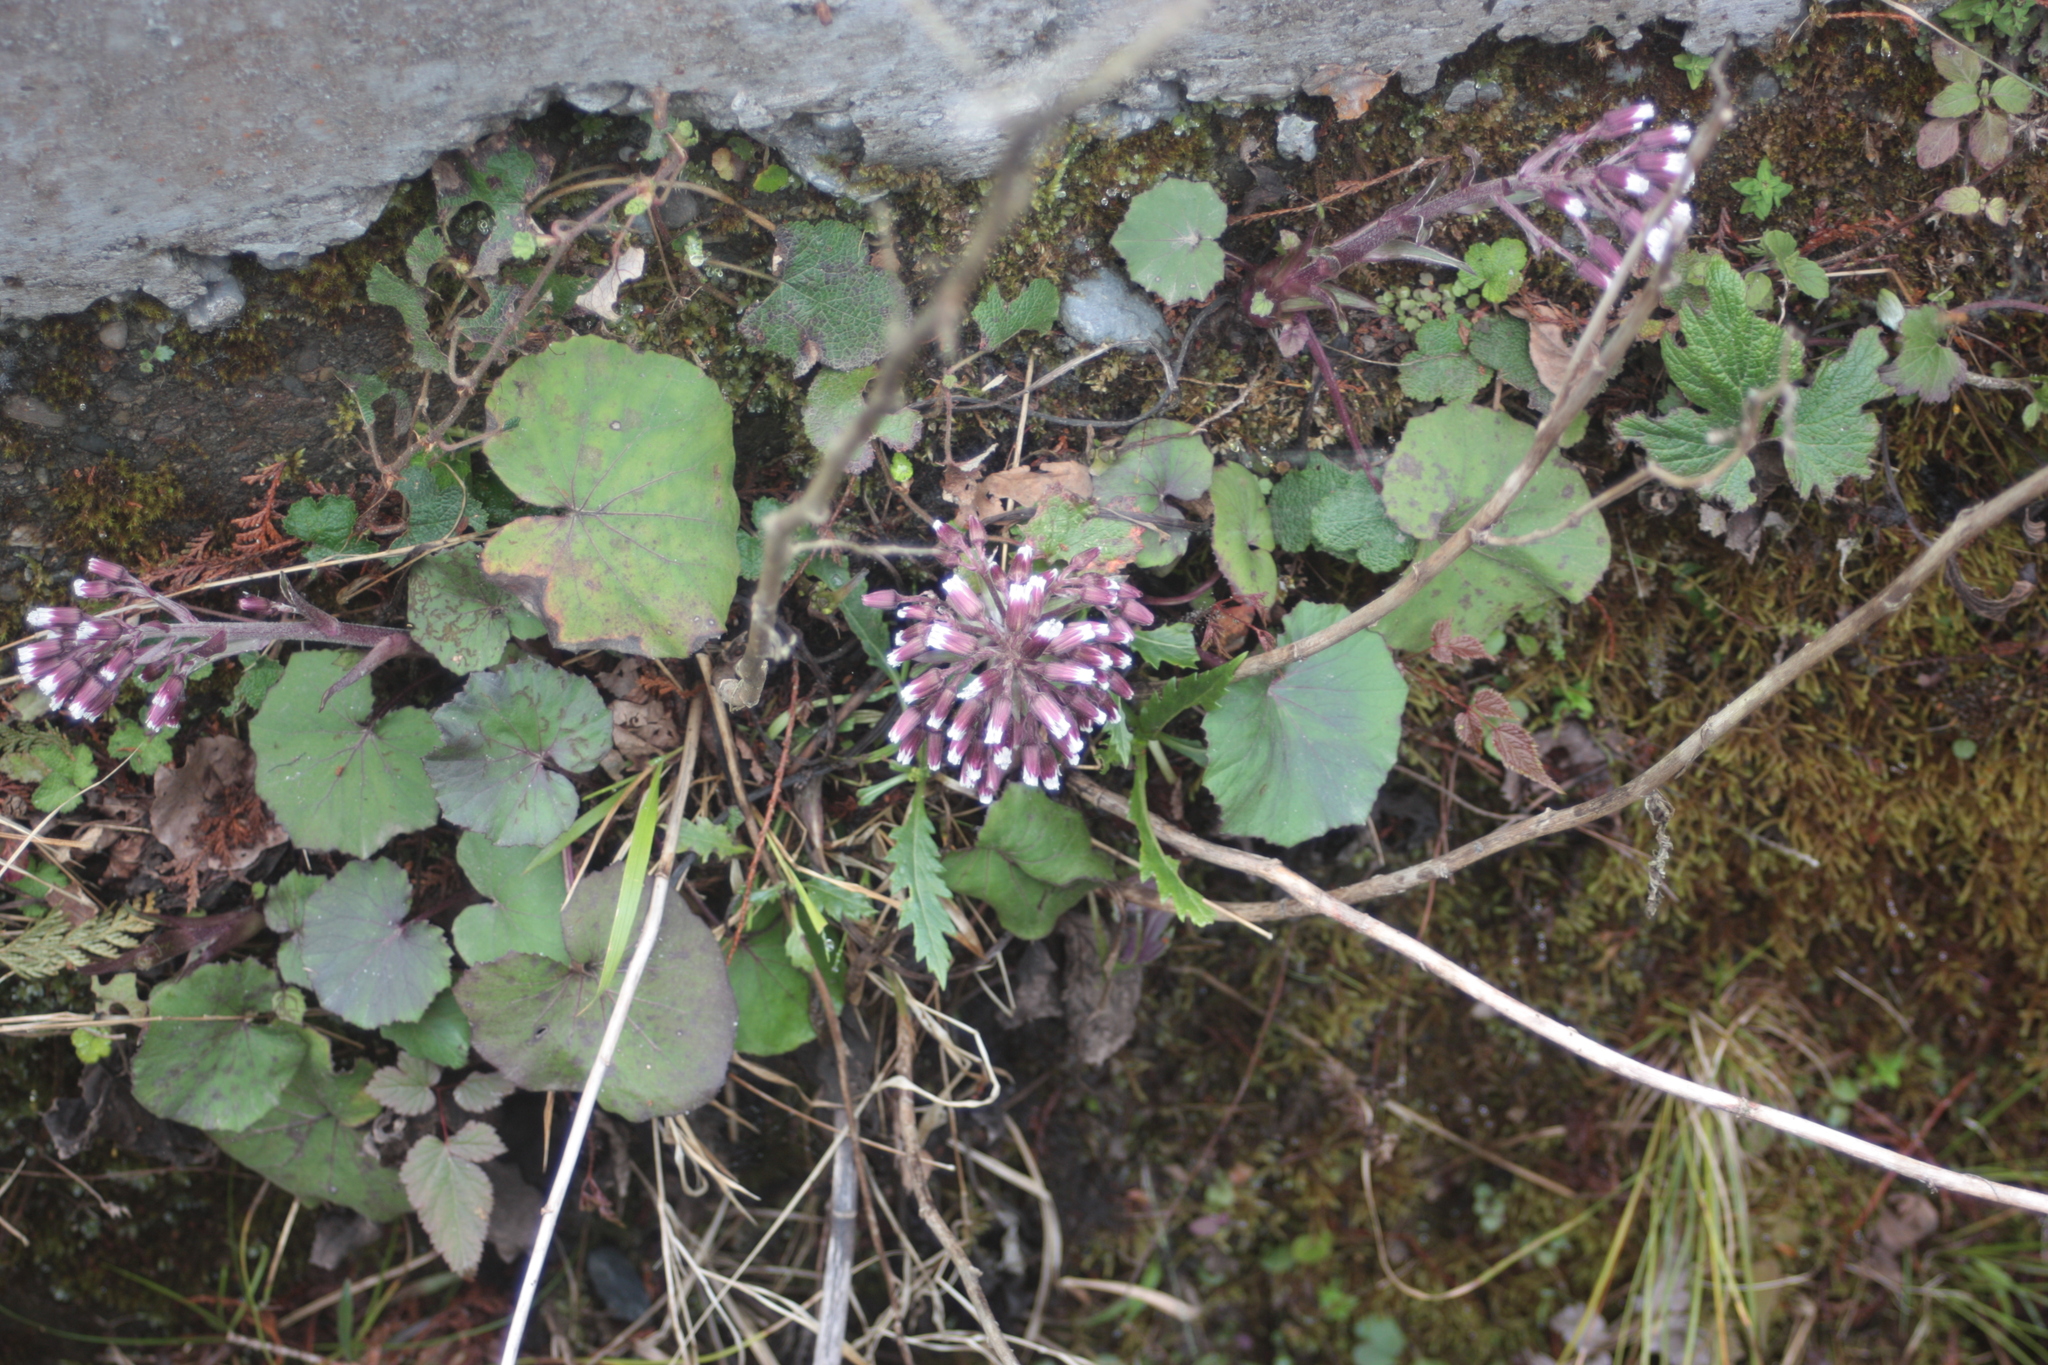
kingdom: Plantae
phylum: Tracheophyta
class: Magnoliopsida
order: Asterales
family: Asteraceae
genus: Petasites
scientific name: Petasites formosanus
